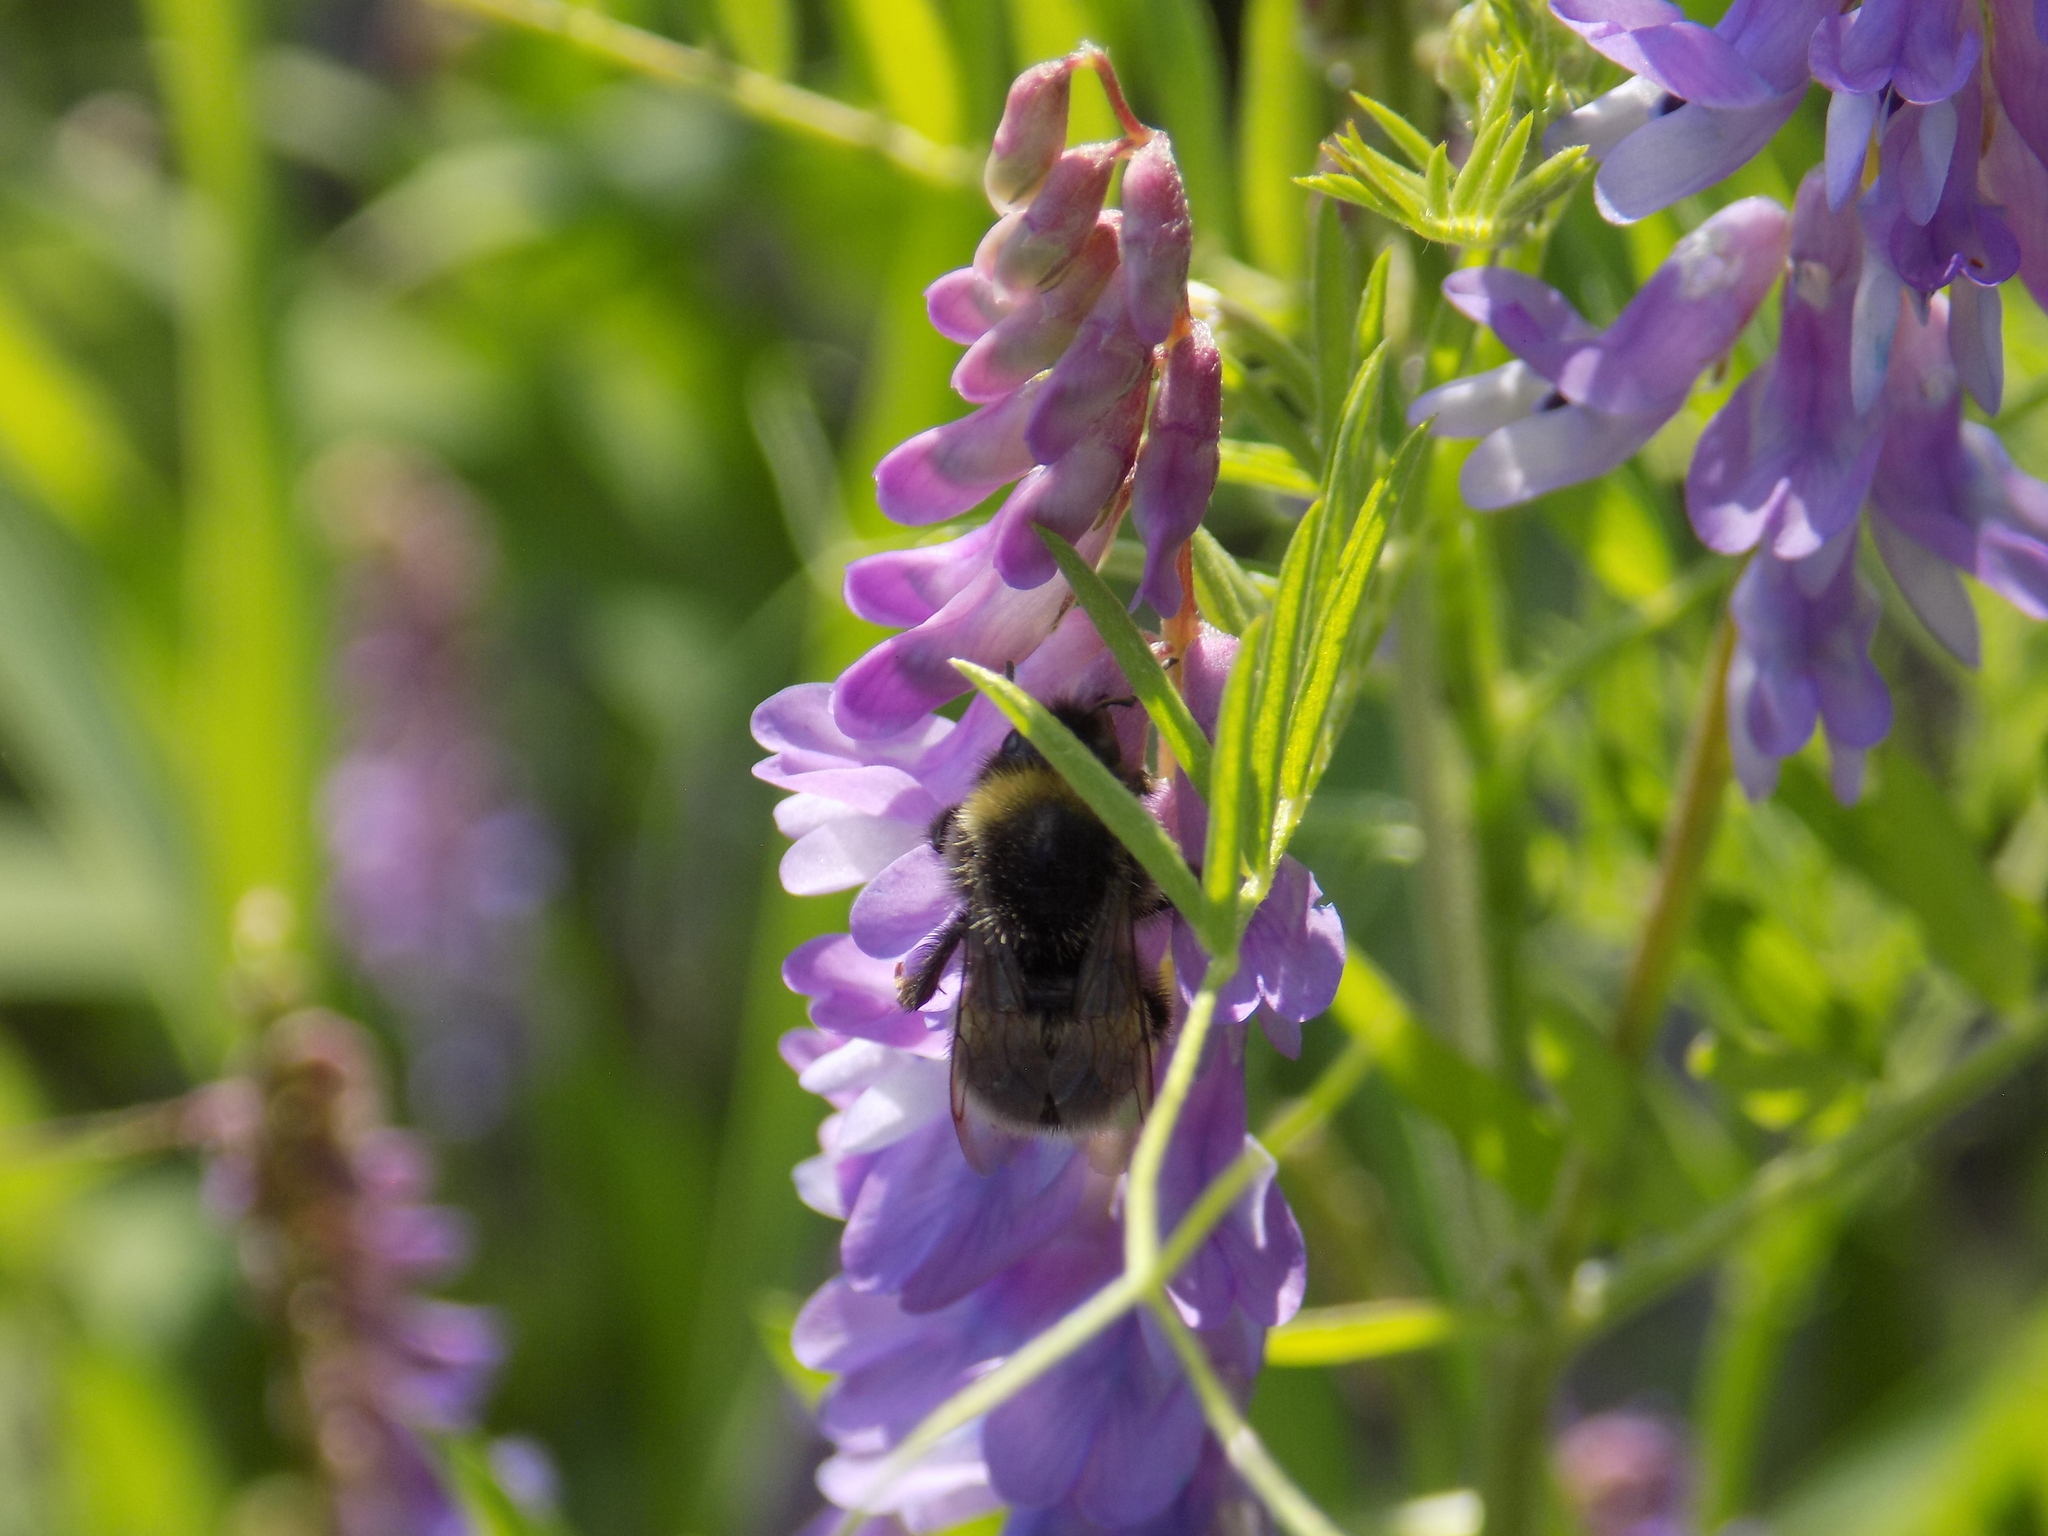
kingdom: Animalia
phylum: Arthropoda
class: Insecta
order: Hymenoptera
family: Apidae
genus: Bombus
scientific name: Bombus
